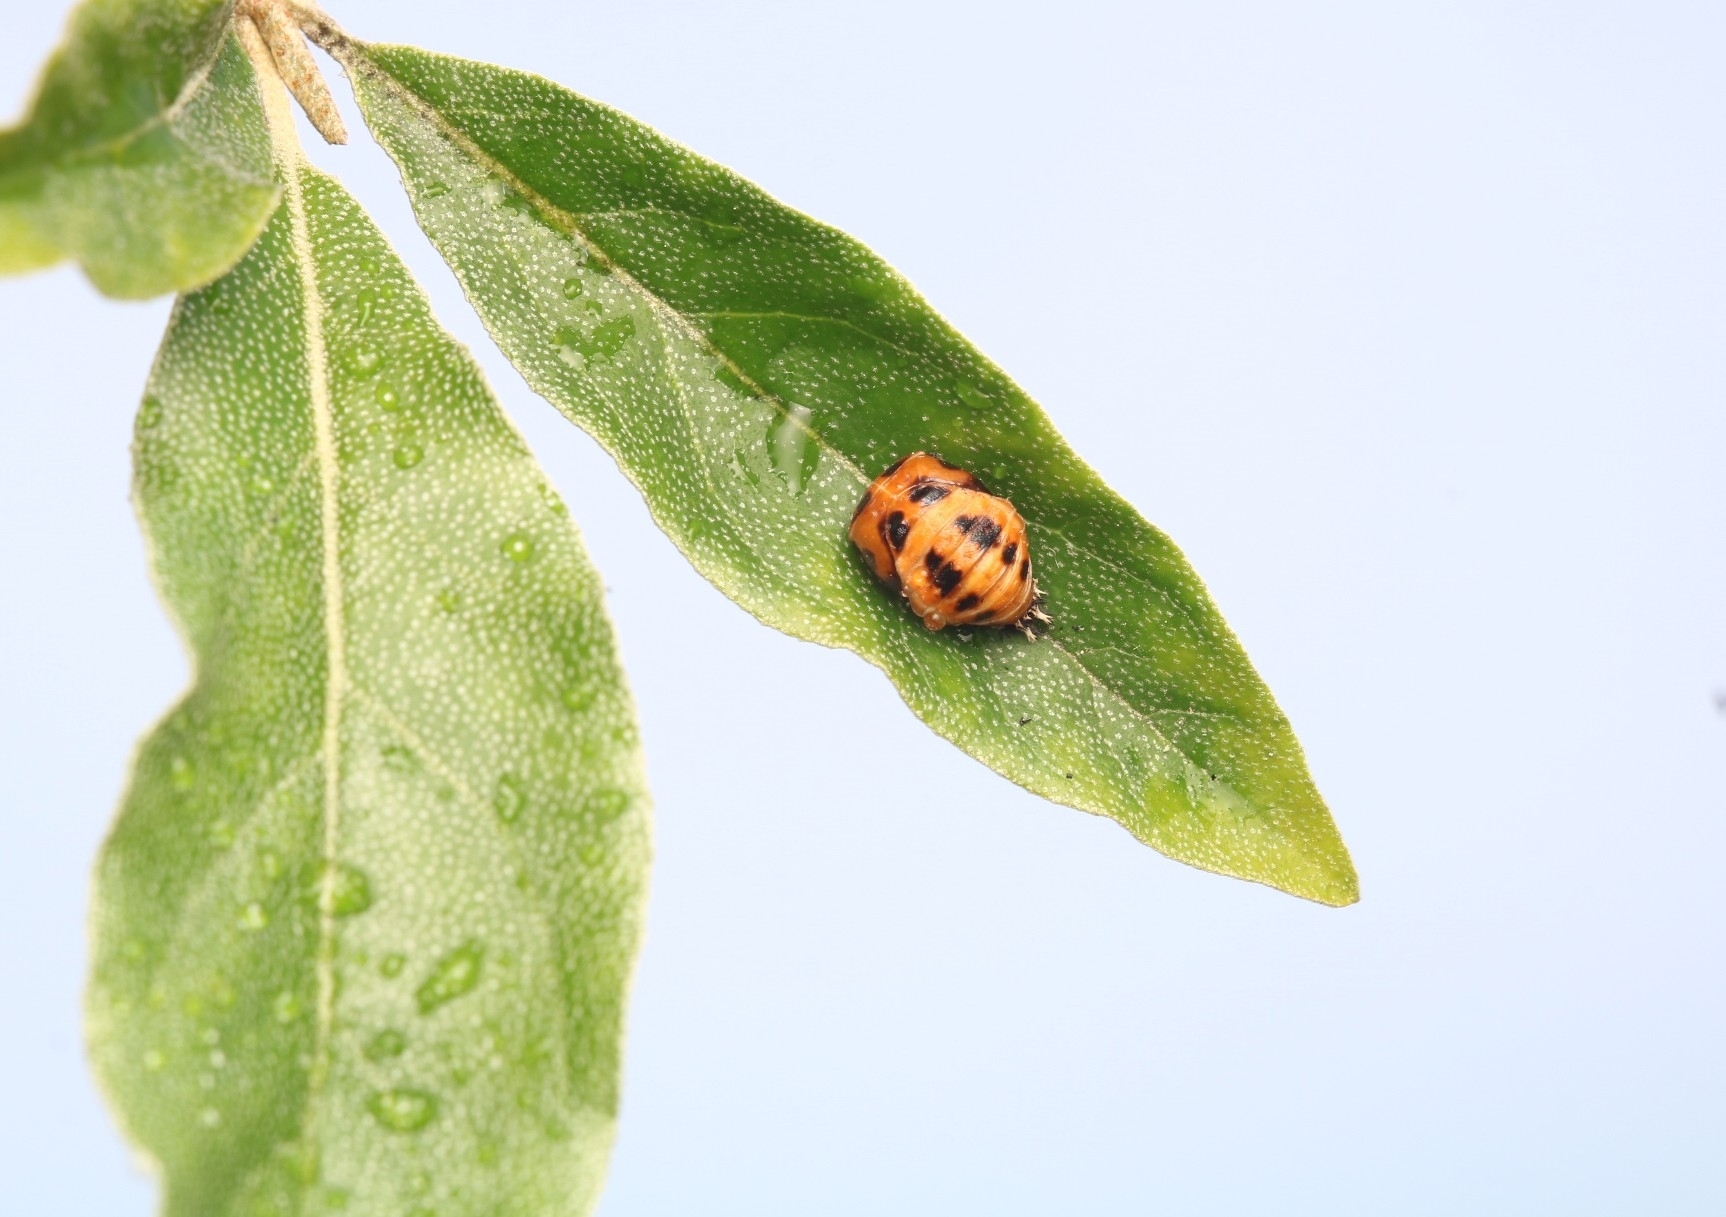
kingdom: Animalia
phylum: Arthropoda
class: Insecta
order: Coleoptera
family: Coccinellidae
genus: Harmonia
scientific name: Harmonia axyridis
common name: Harlequin ladybird
